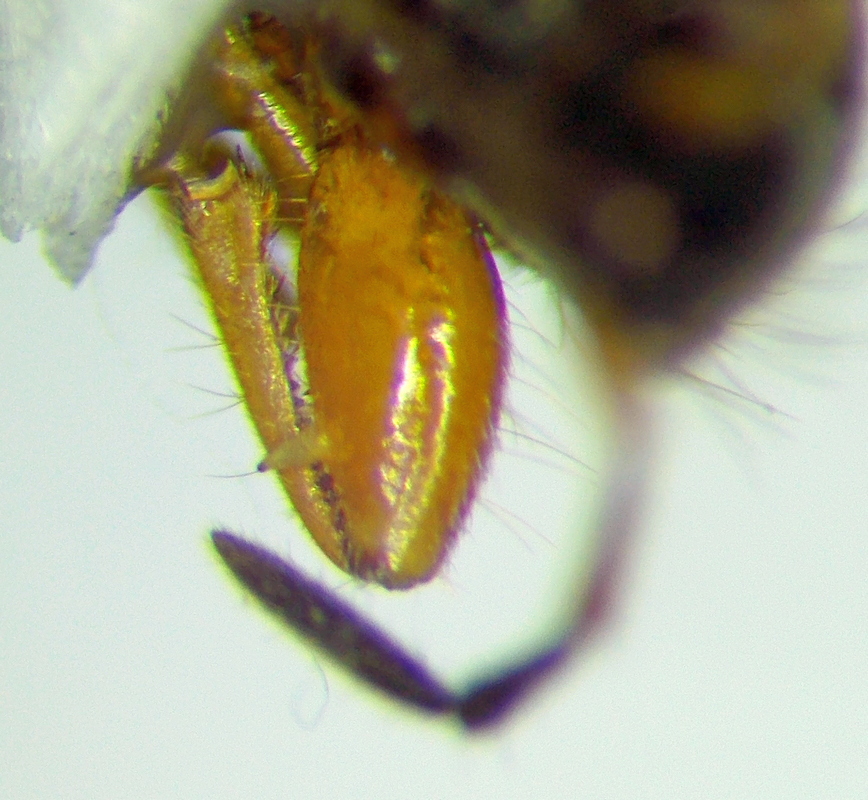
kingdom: Animalia
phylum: Arthropoda
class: Insecta
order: Hemiptera
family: Rhyparochromidae
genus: Megalonotus
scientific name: Megalonotus hirsutus
